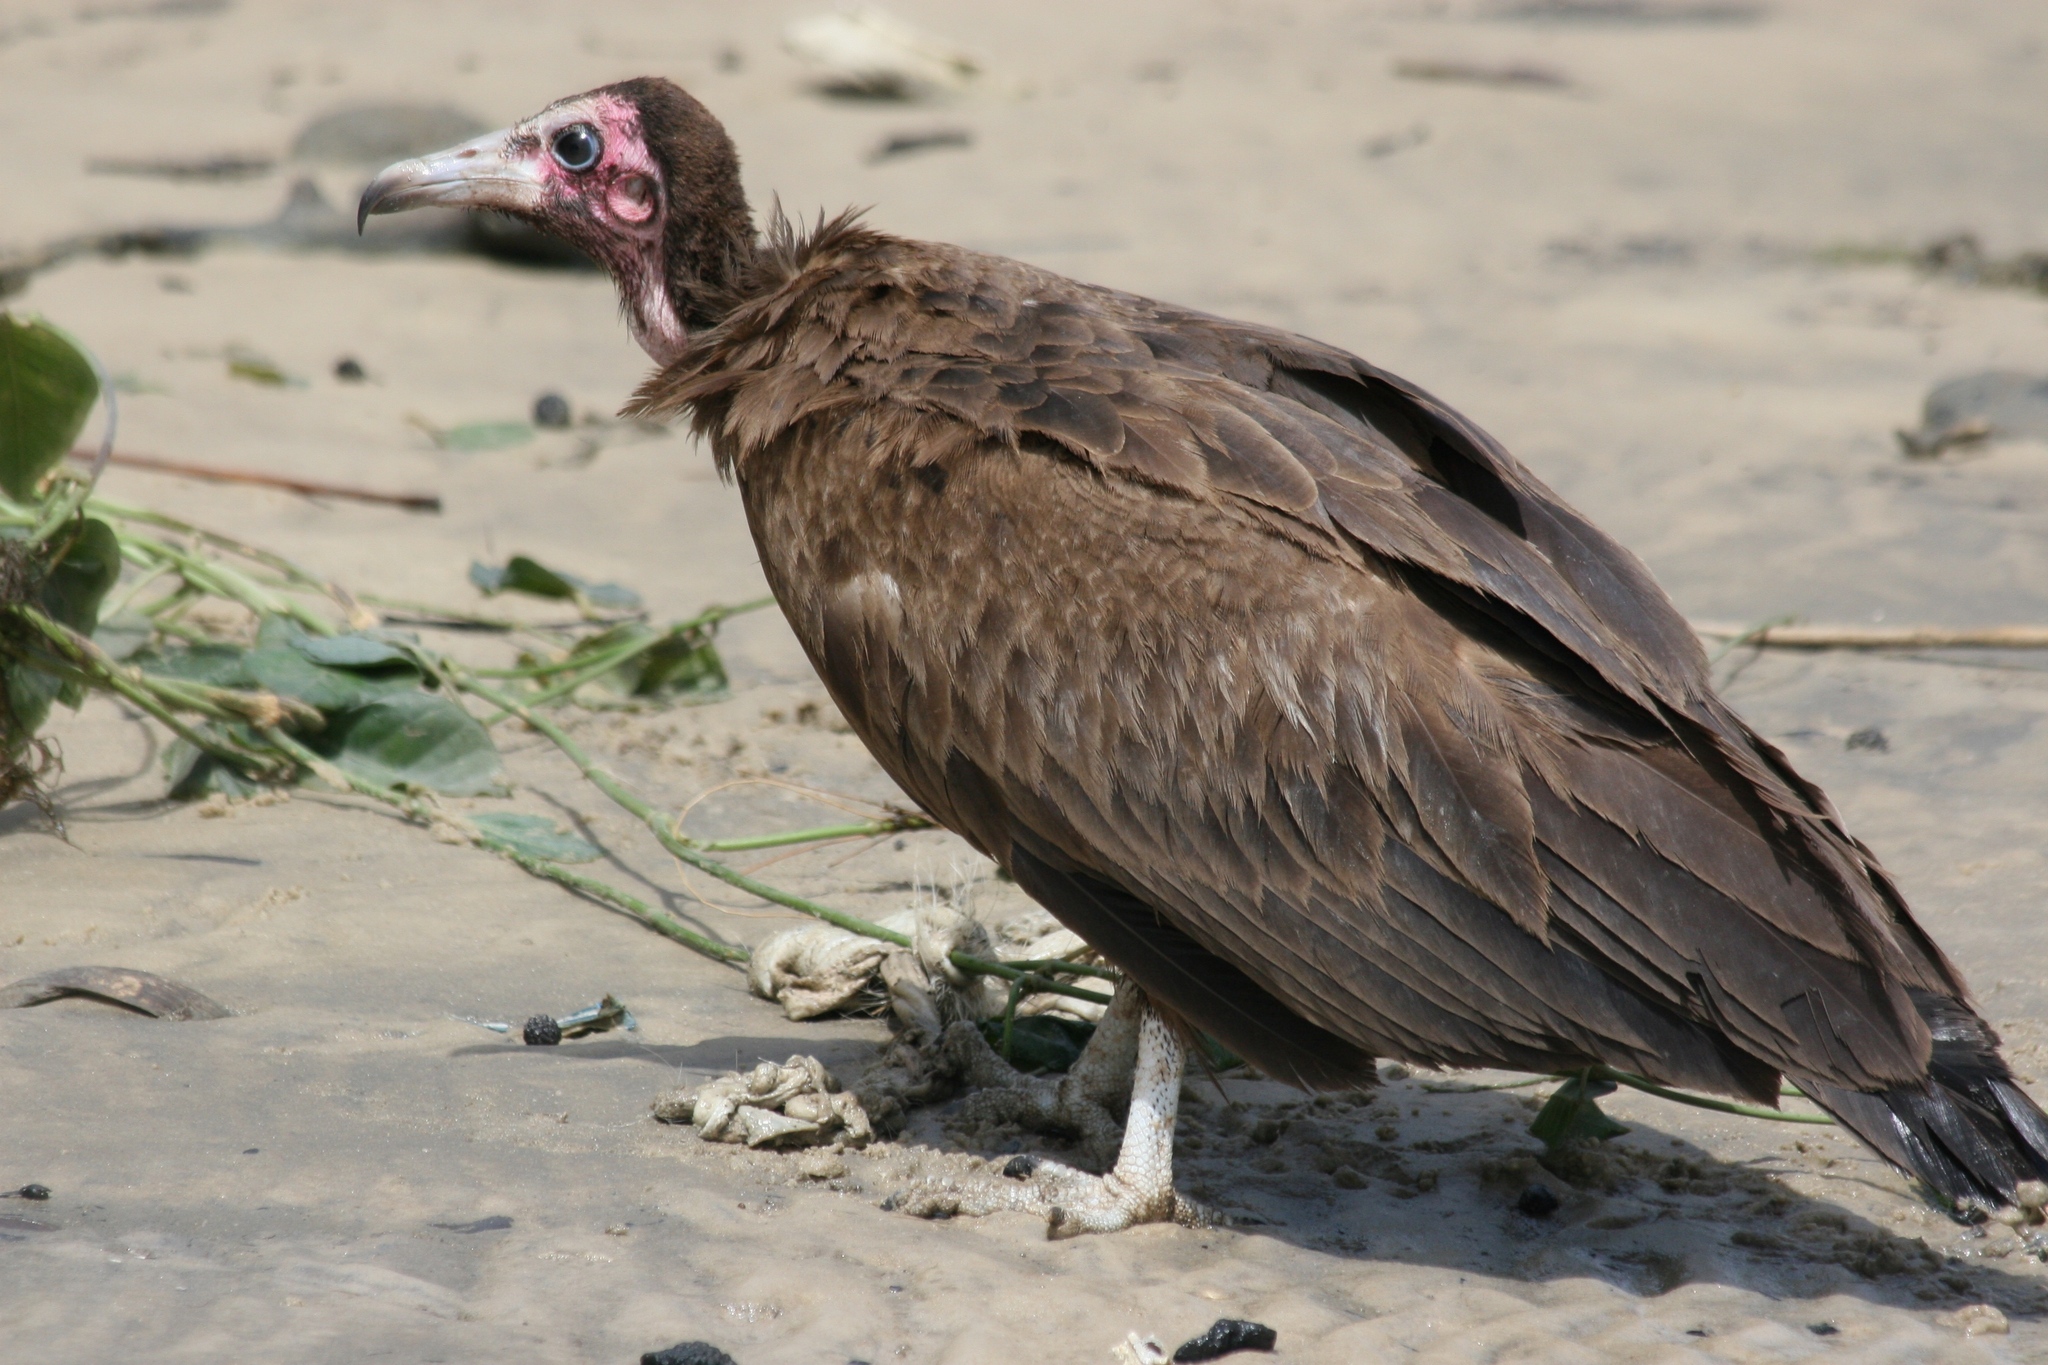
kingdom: Animalia
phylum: Chordata
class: Aves
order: Accipitriformes
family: Accipitridae
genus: Necrosyrtes
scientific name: Necrosyrtes monachus
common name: Hooded vulture
